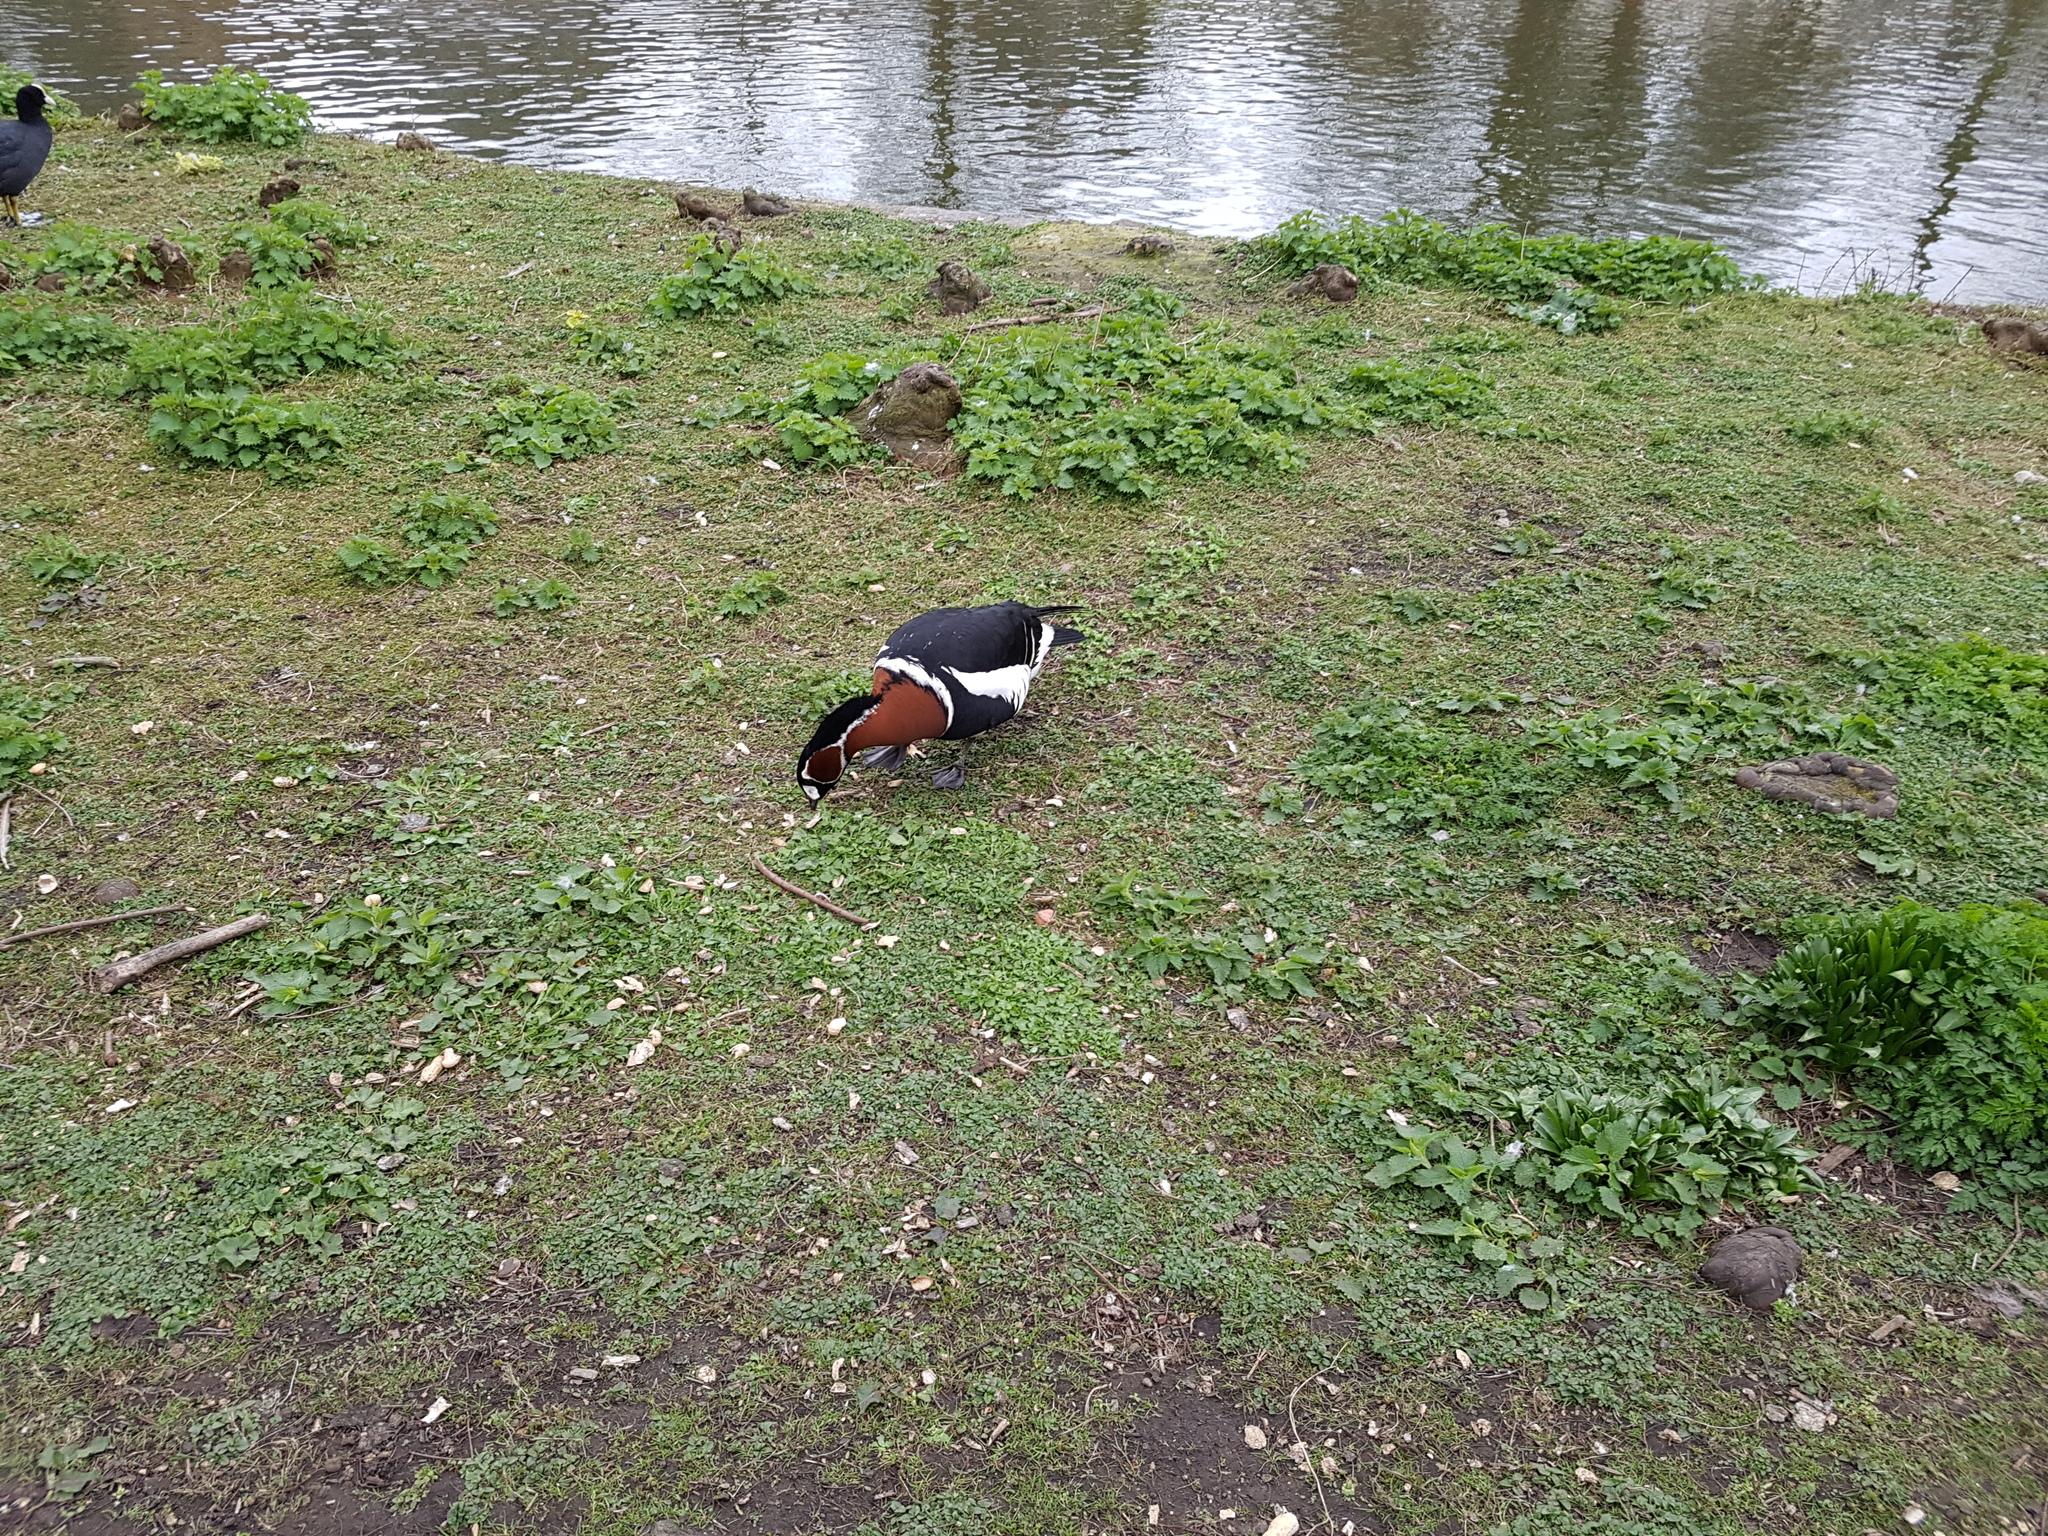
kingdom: Animalia
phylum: Chordata
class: Aves
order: Anseriformes
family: Anatidae
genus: Branta
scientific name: Branta ruficollis
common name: Red-breasted goose
